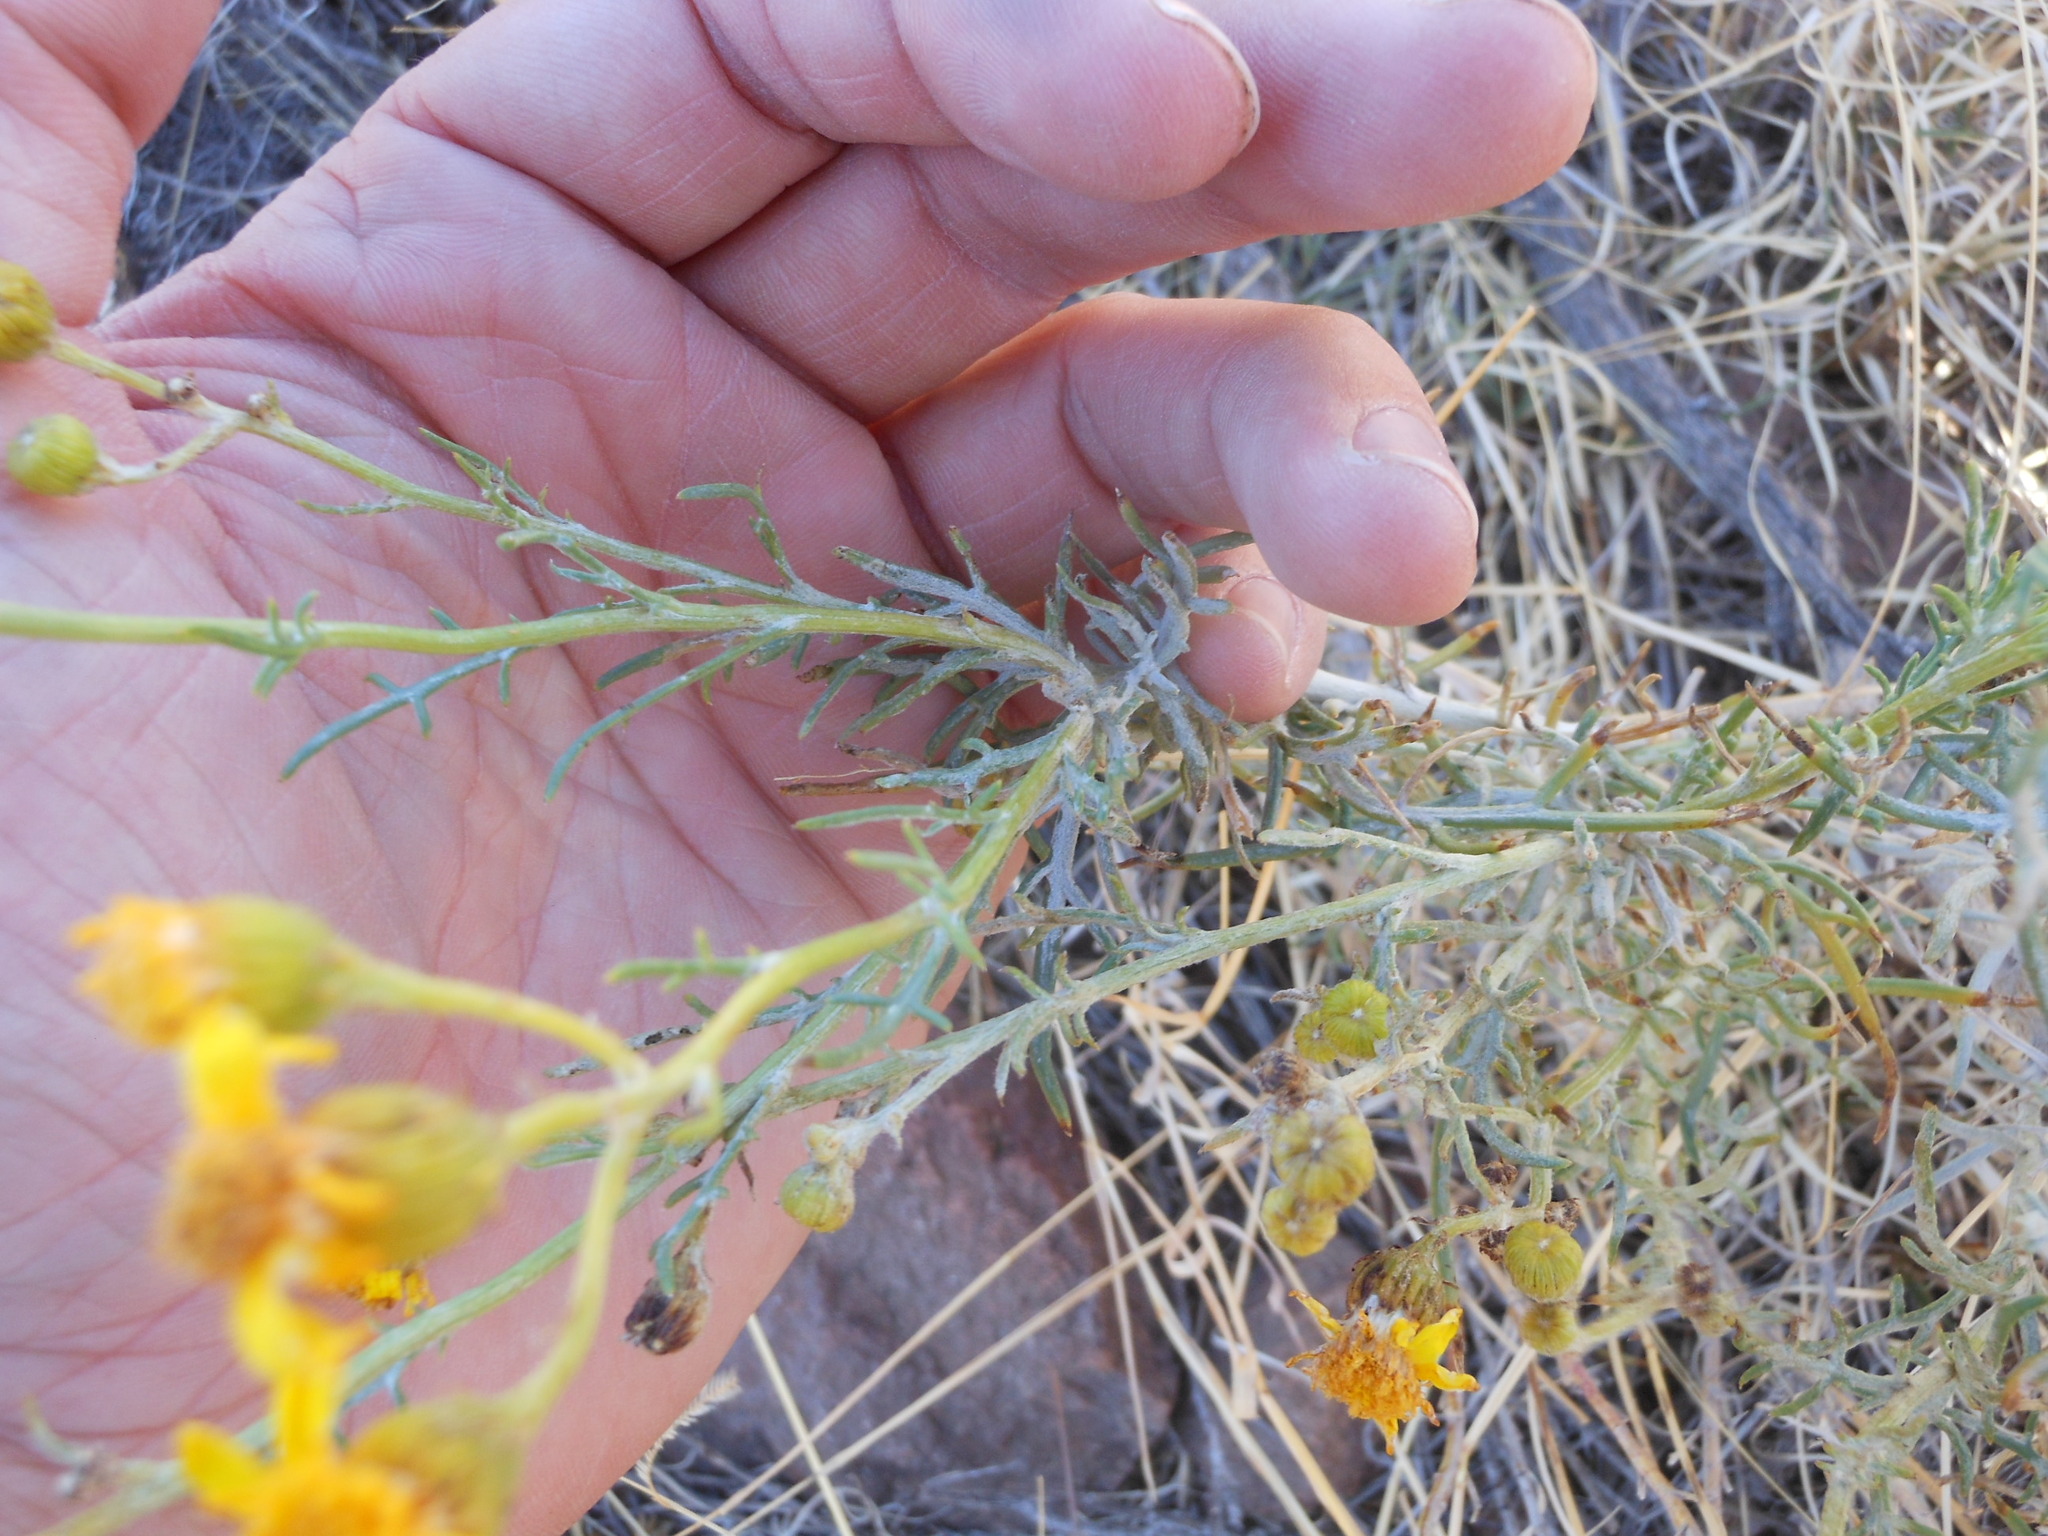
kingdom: Plantae
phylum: Tracheophyta
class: Magnoliopsida
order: Asterales
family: Asteraceae
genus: Senecio
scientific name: Senecio flaccidus
